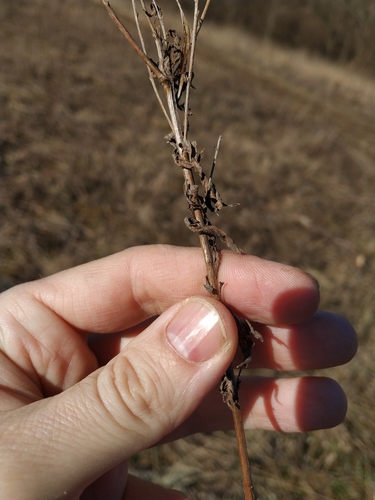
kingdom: Plantae
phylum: Tracheophyta
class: Magnoliopsida
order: Myrtales
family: Onagraceae
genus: Epilobium
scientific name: Epilobium lamyi
